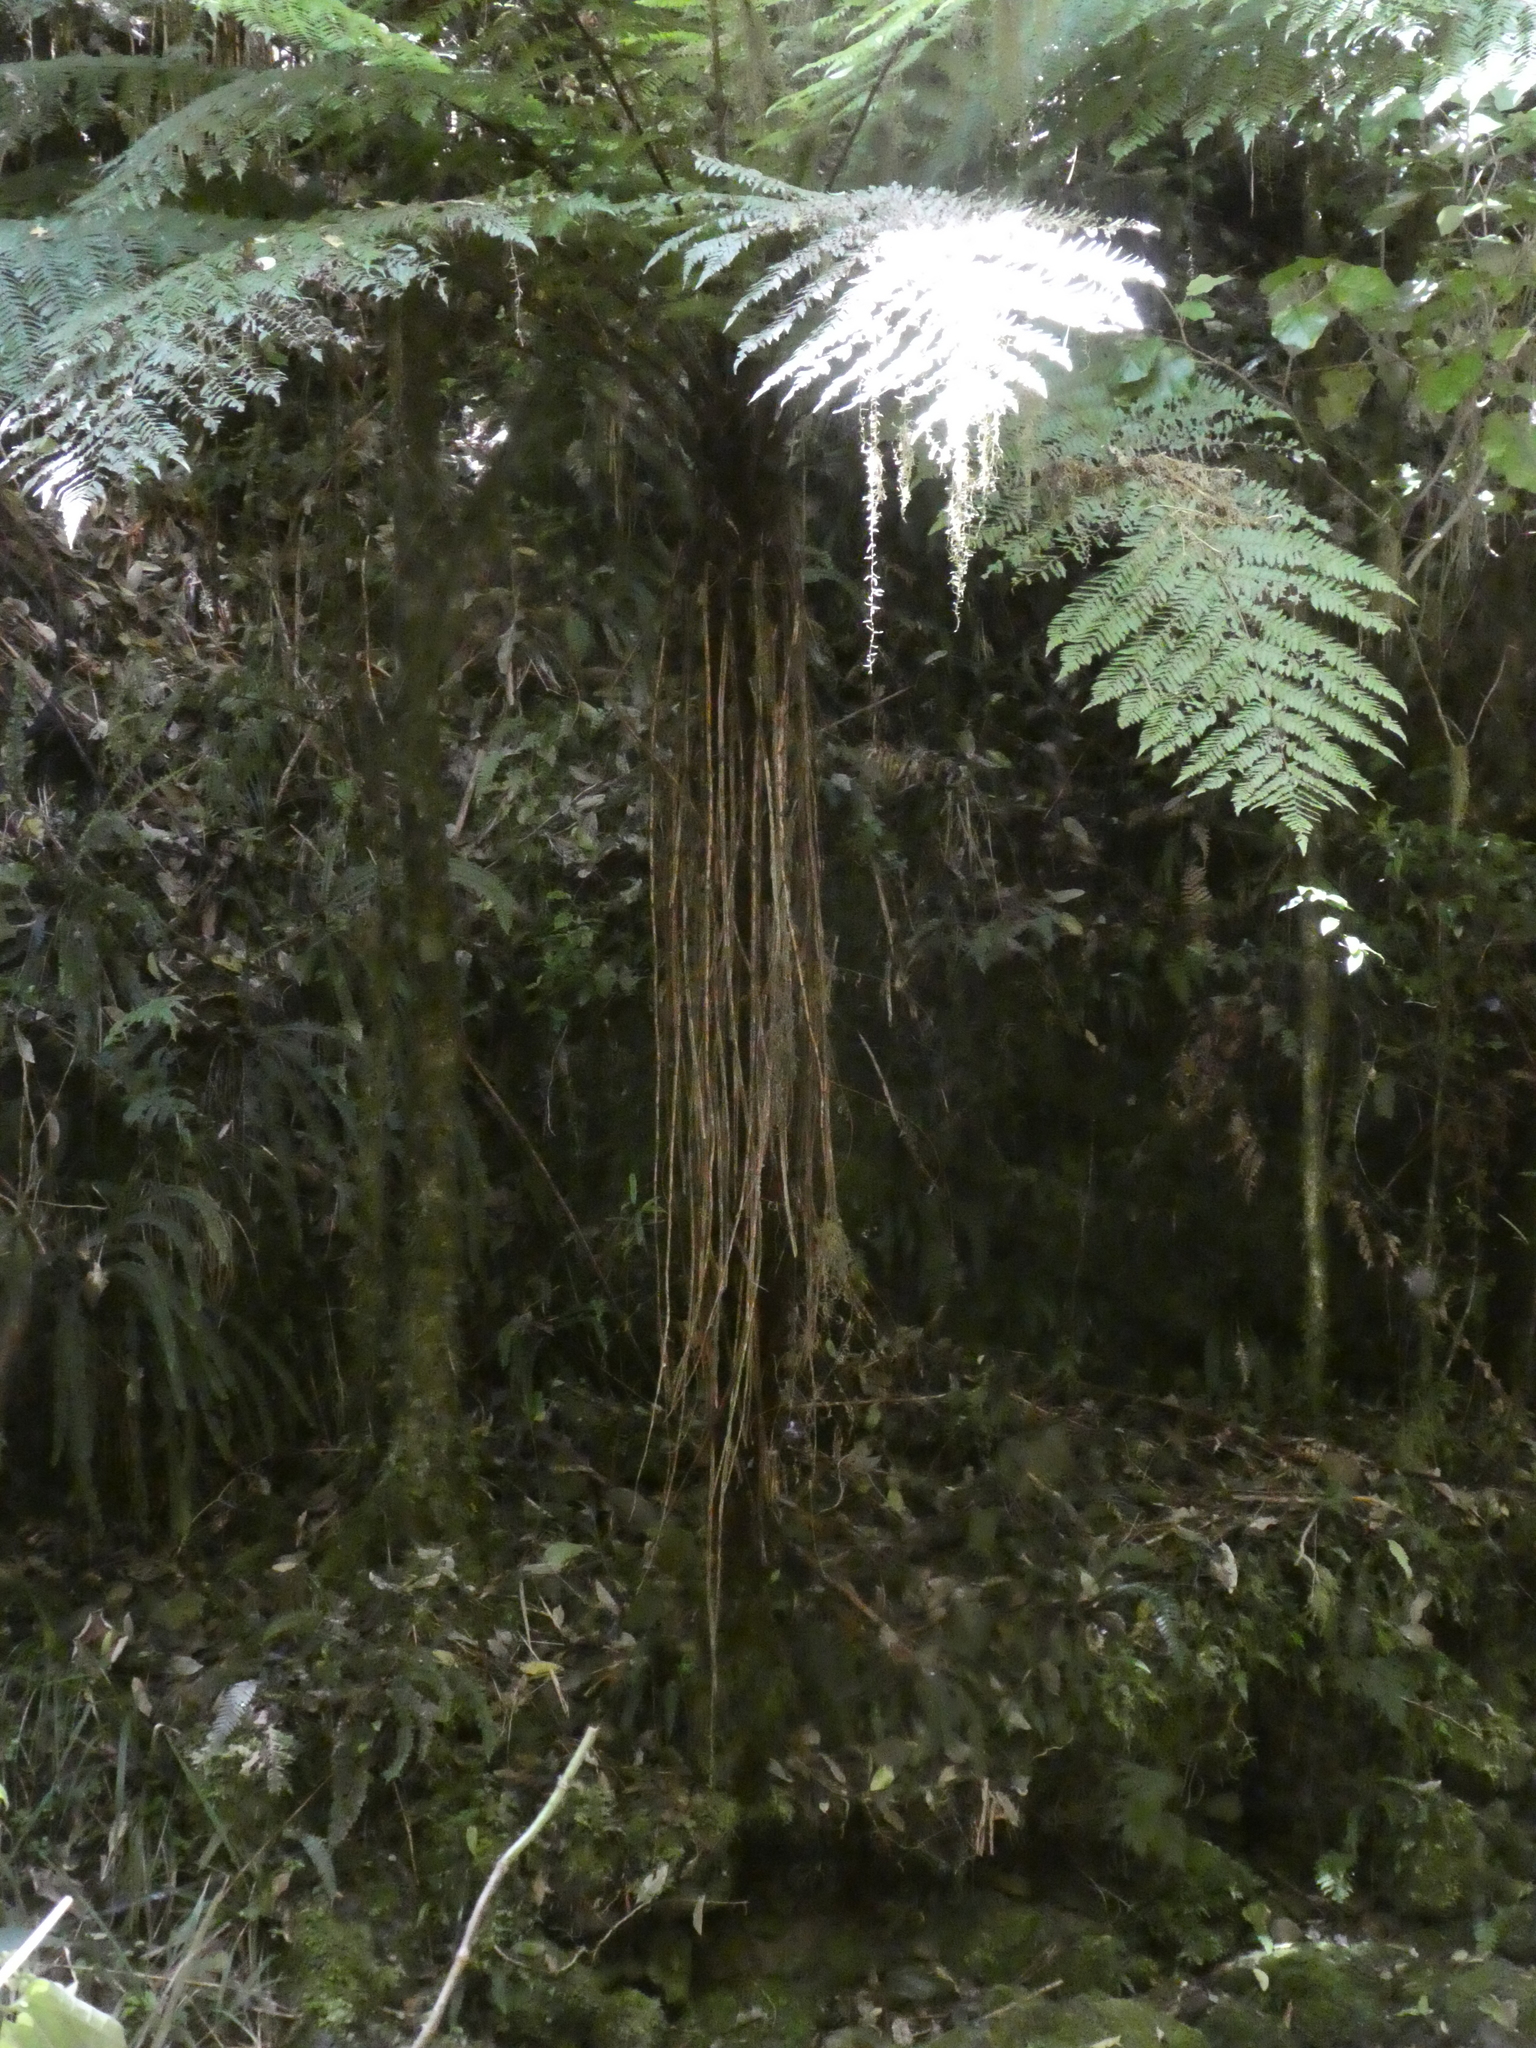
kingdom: Plantae
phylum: Tracheophyta
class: Polypodiopsida
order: Cyatheales
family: Cyatheaceae
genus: Alsophila
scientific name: Alsophila smithii
